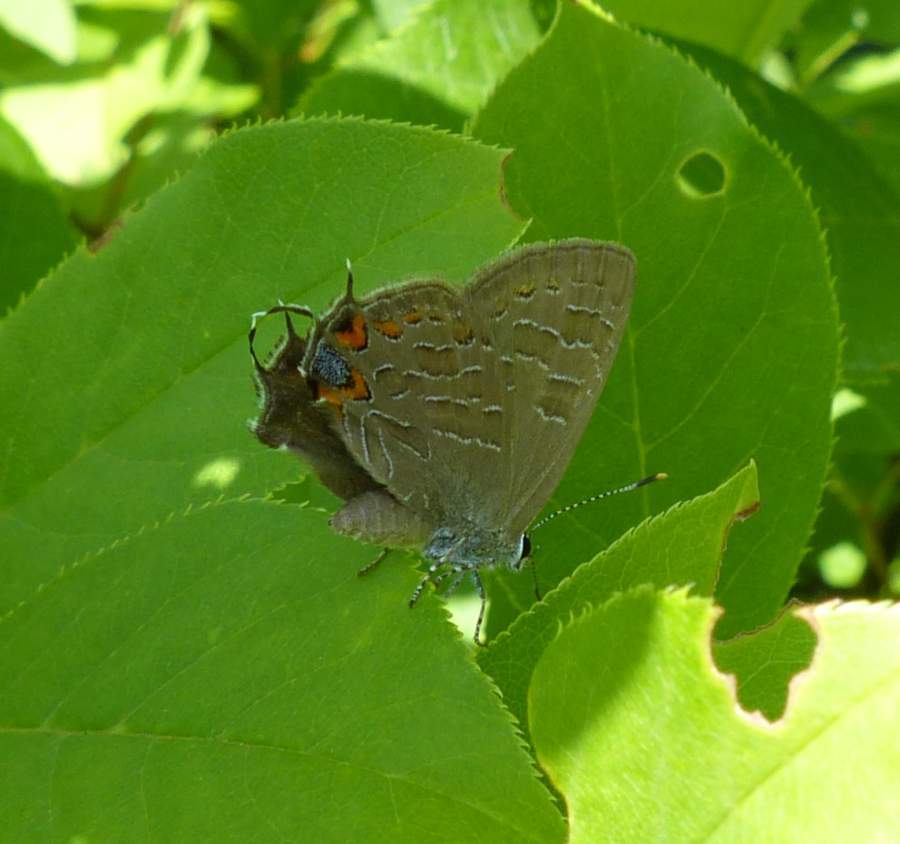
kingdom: Animalia
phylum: Arthropoda
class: Insecta
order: Lepidoptera
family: Lycaenidae
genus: Satyrium
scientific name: Satyrium liparops
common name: Striped hairstreak
